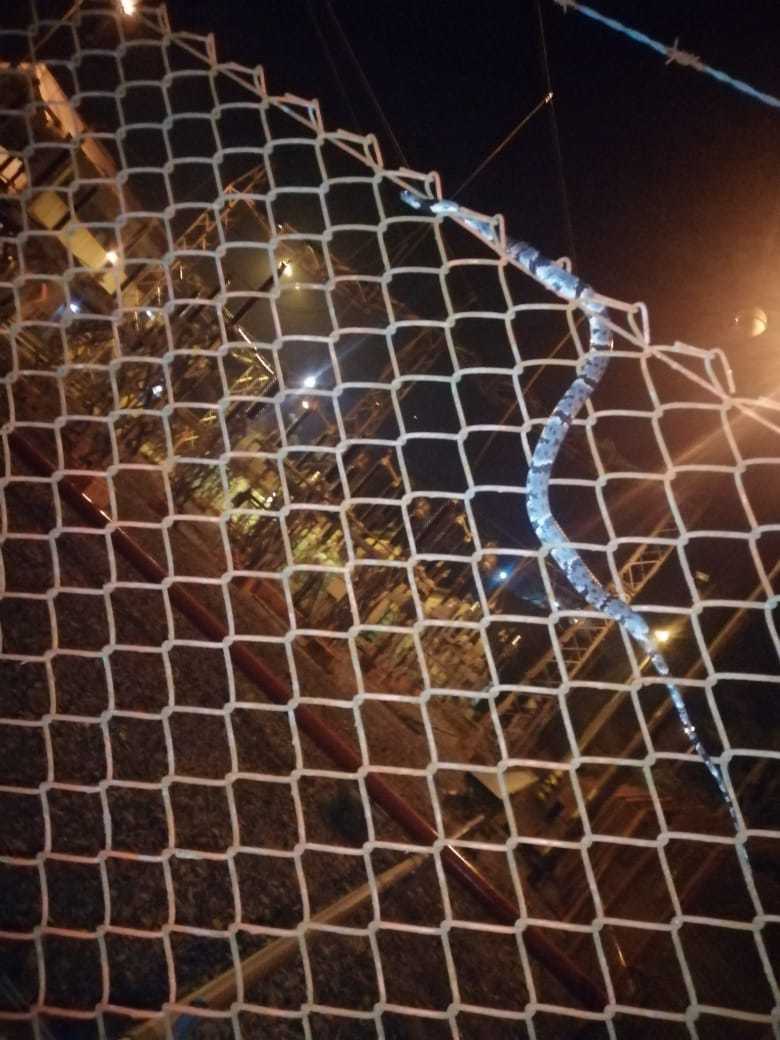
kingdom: Animalia
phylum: Chordata
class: Squamata
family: Colubridae
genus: Sibon
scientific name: Sibon nebulatus
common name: Cloudy snail-eating snake
